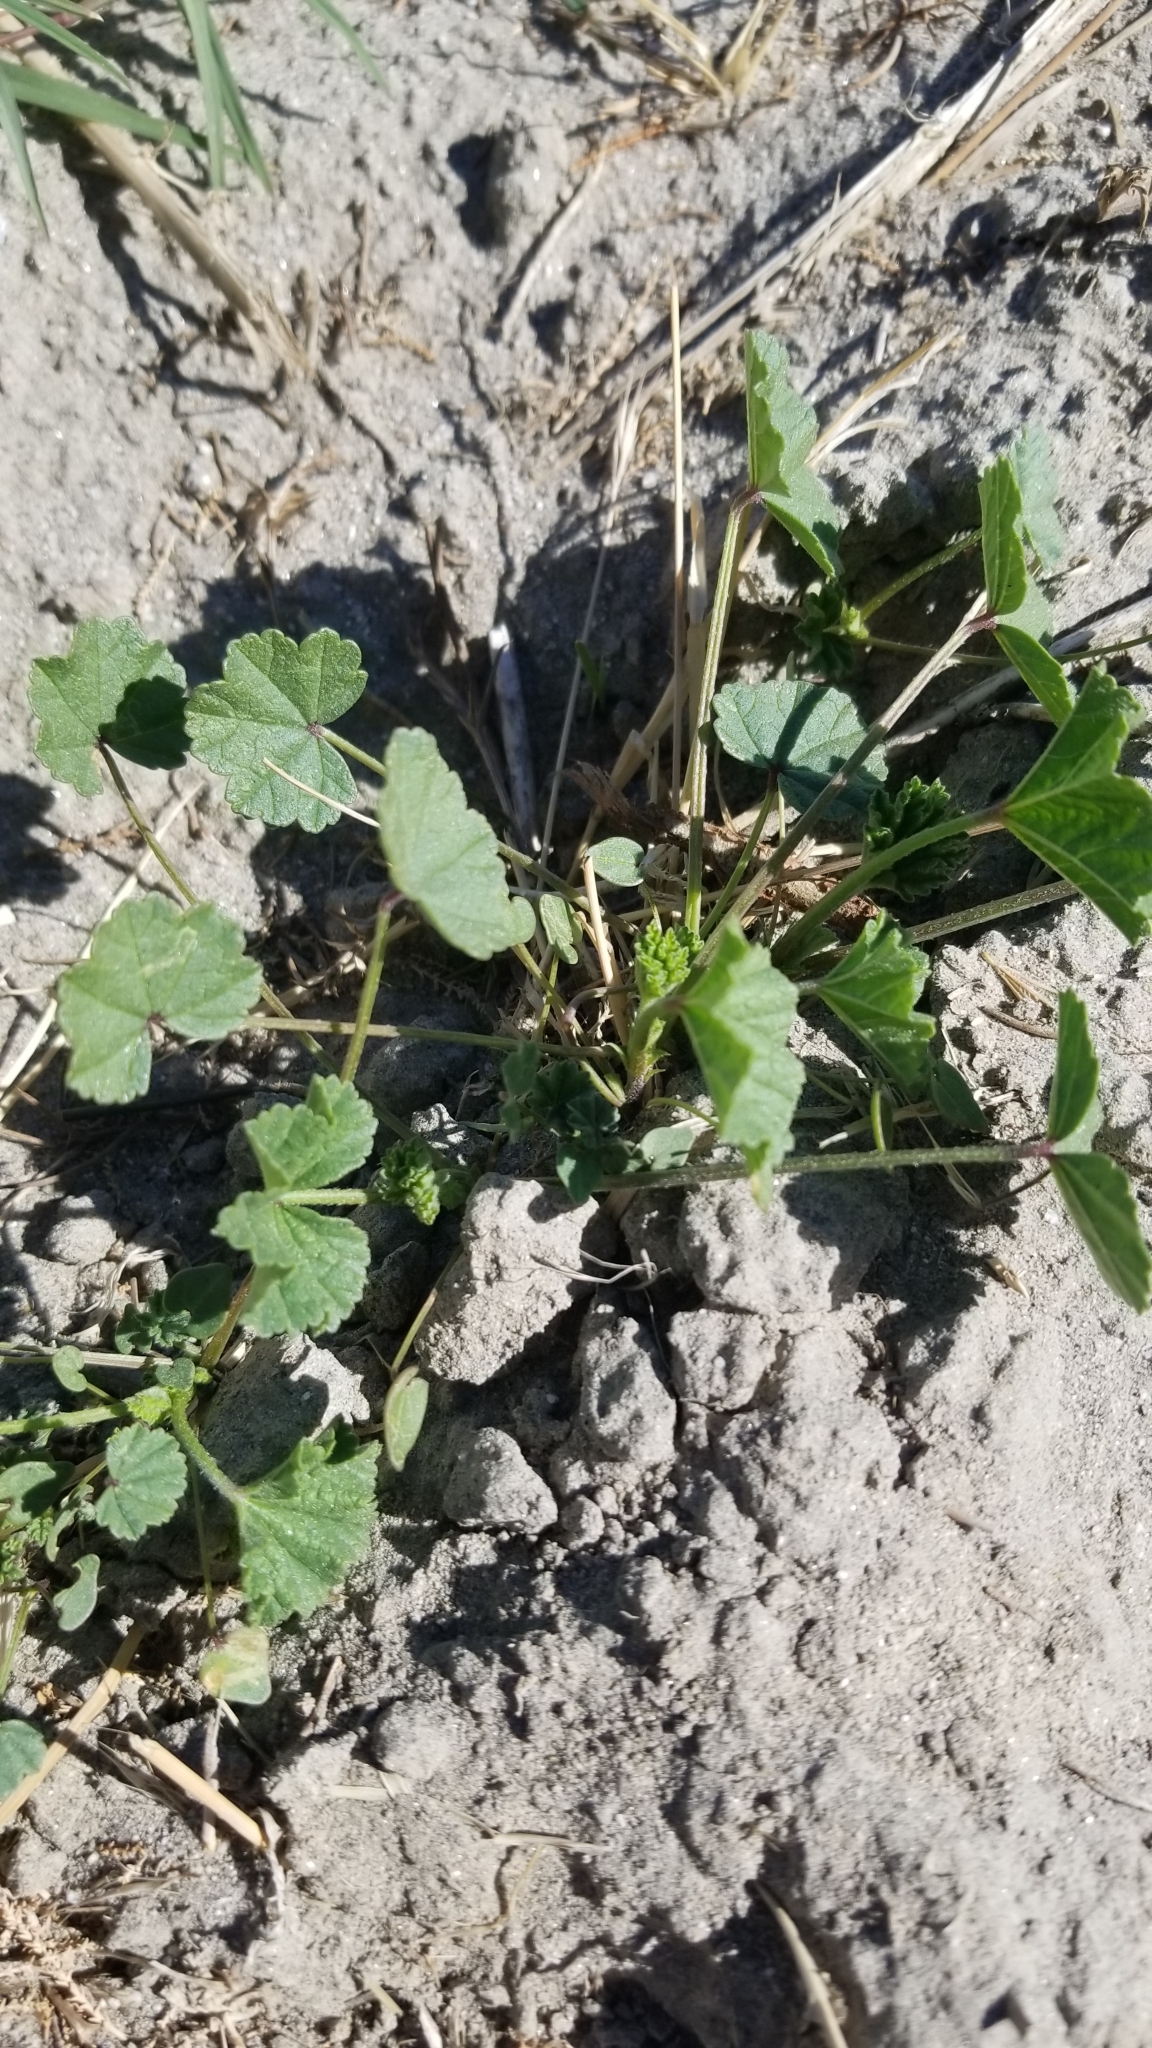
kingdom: Plantae
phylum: Tracheophyta
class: Magnoliopsida
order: Malvales
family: Malvaceae
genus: Malva
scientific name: Malva
